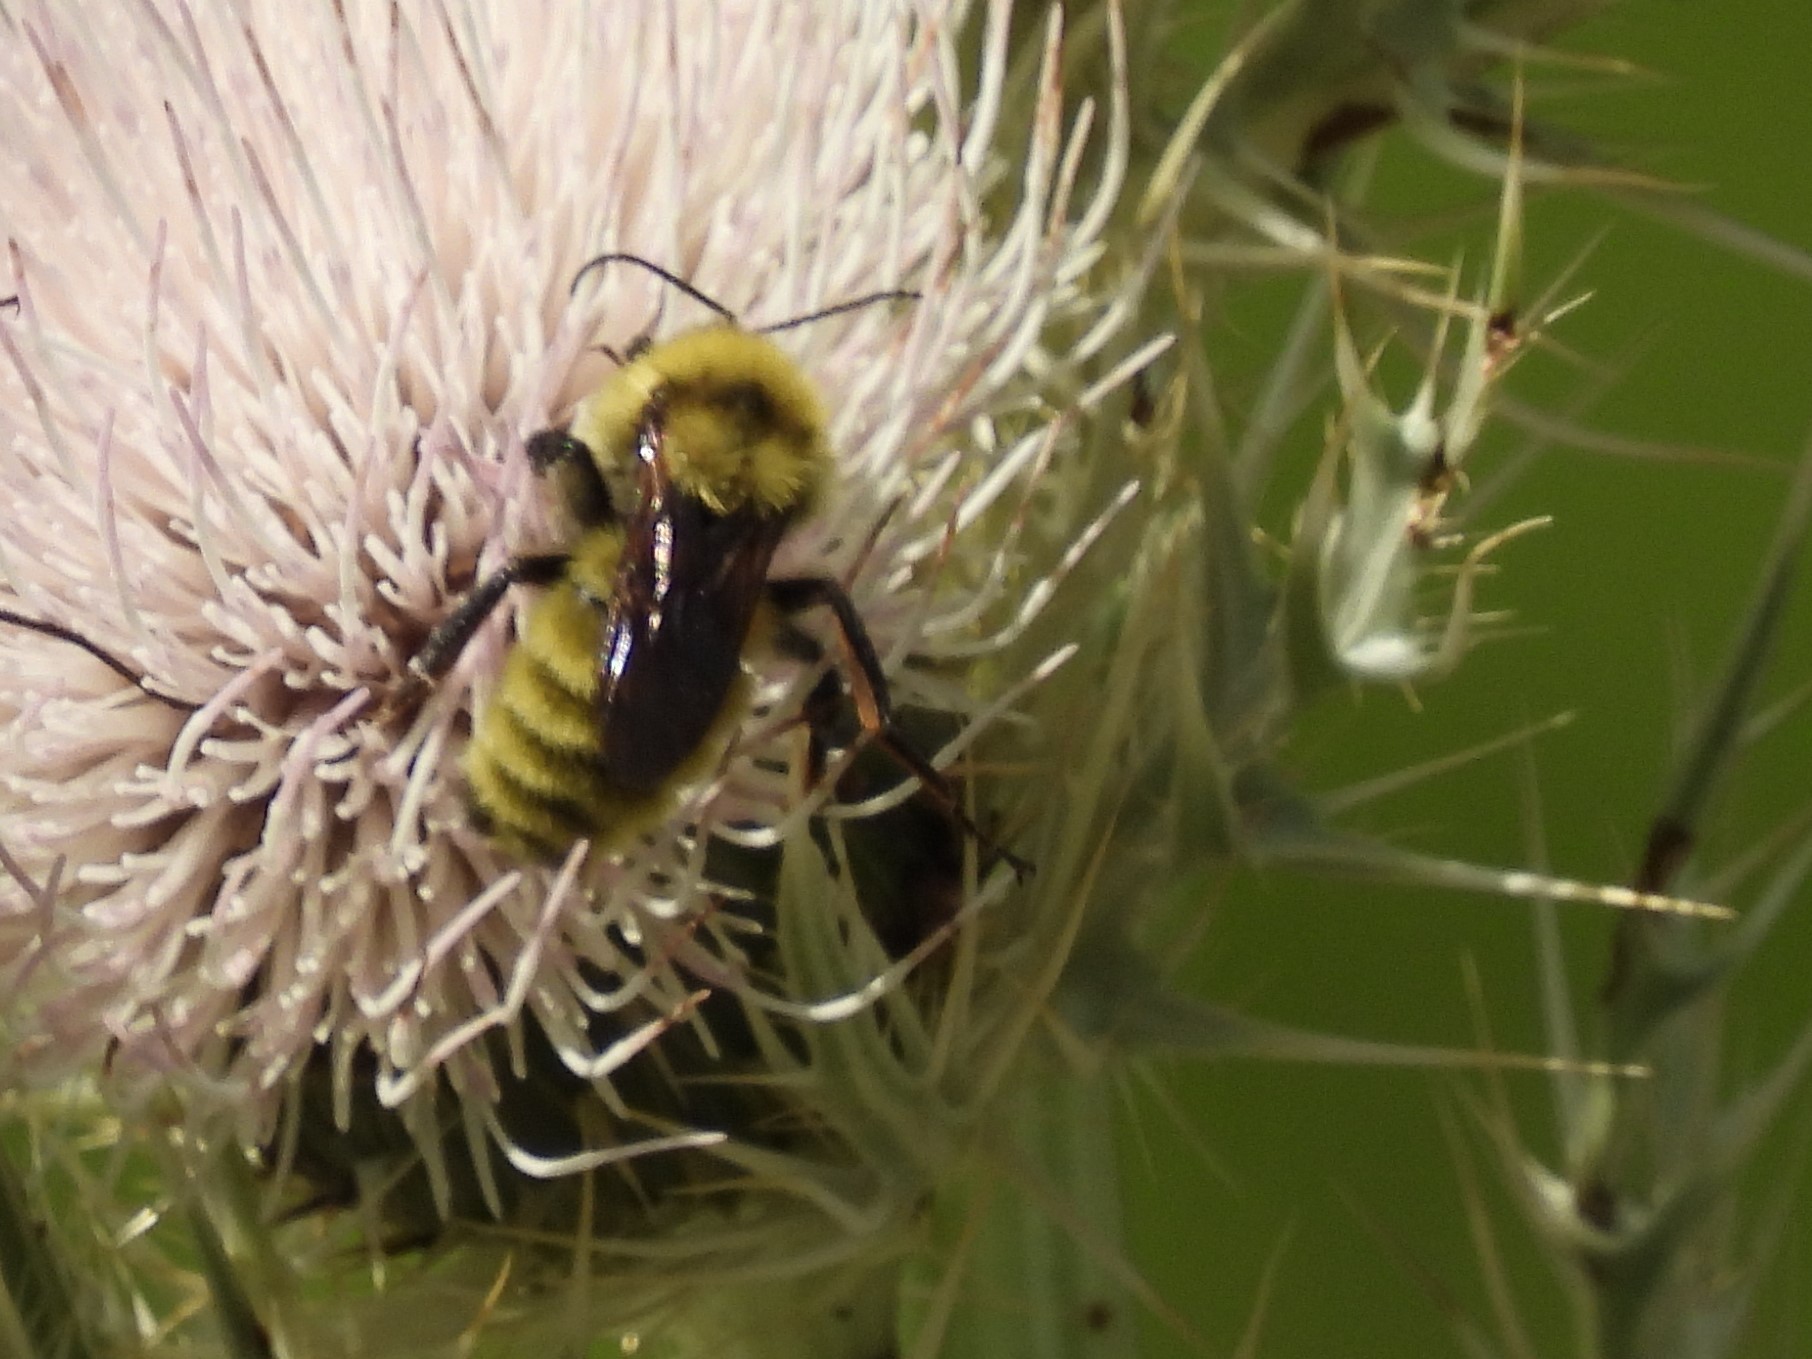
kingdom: Animalia
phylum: Arthropoda
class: Insecta
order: Hymenoptera
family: Apidae
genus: Bombus
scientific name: Bombus fervidus
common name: Yellow bumble bee
